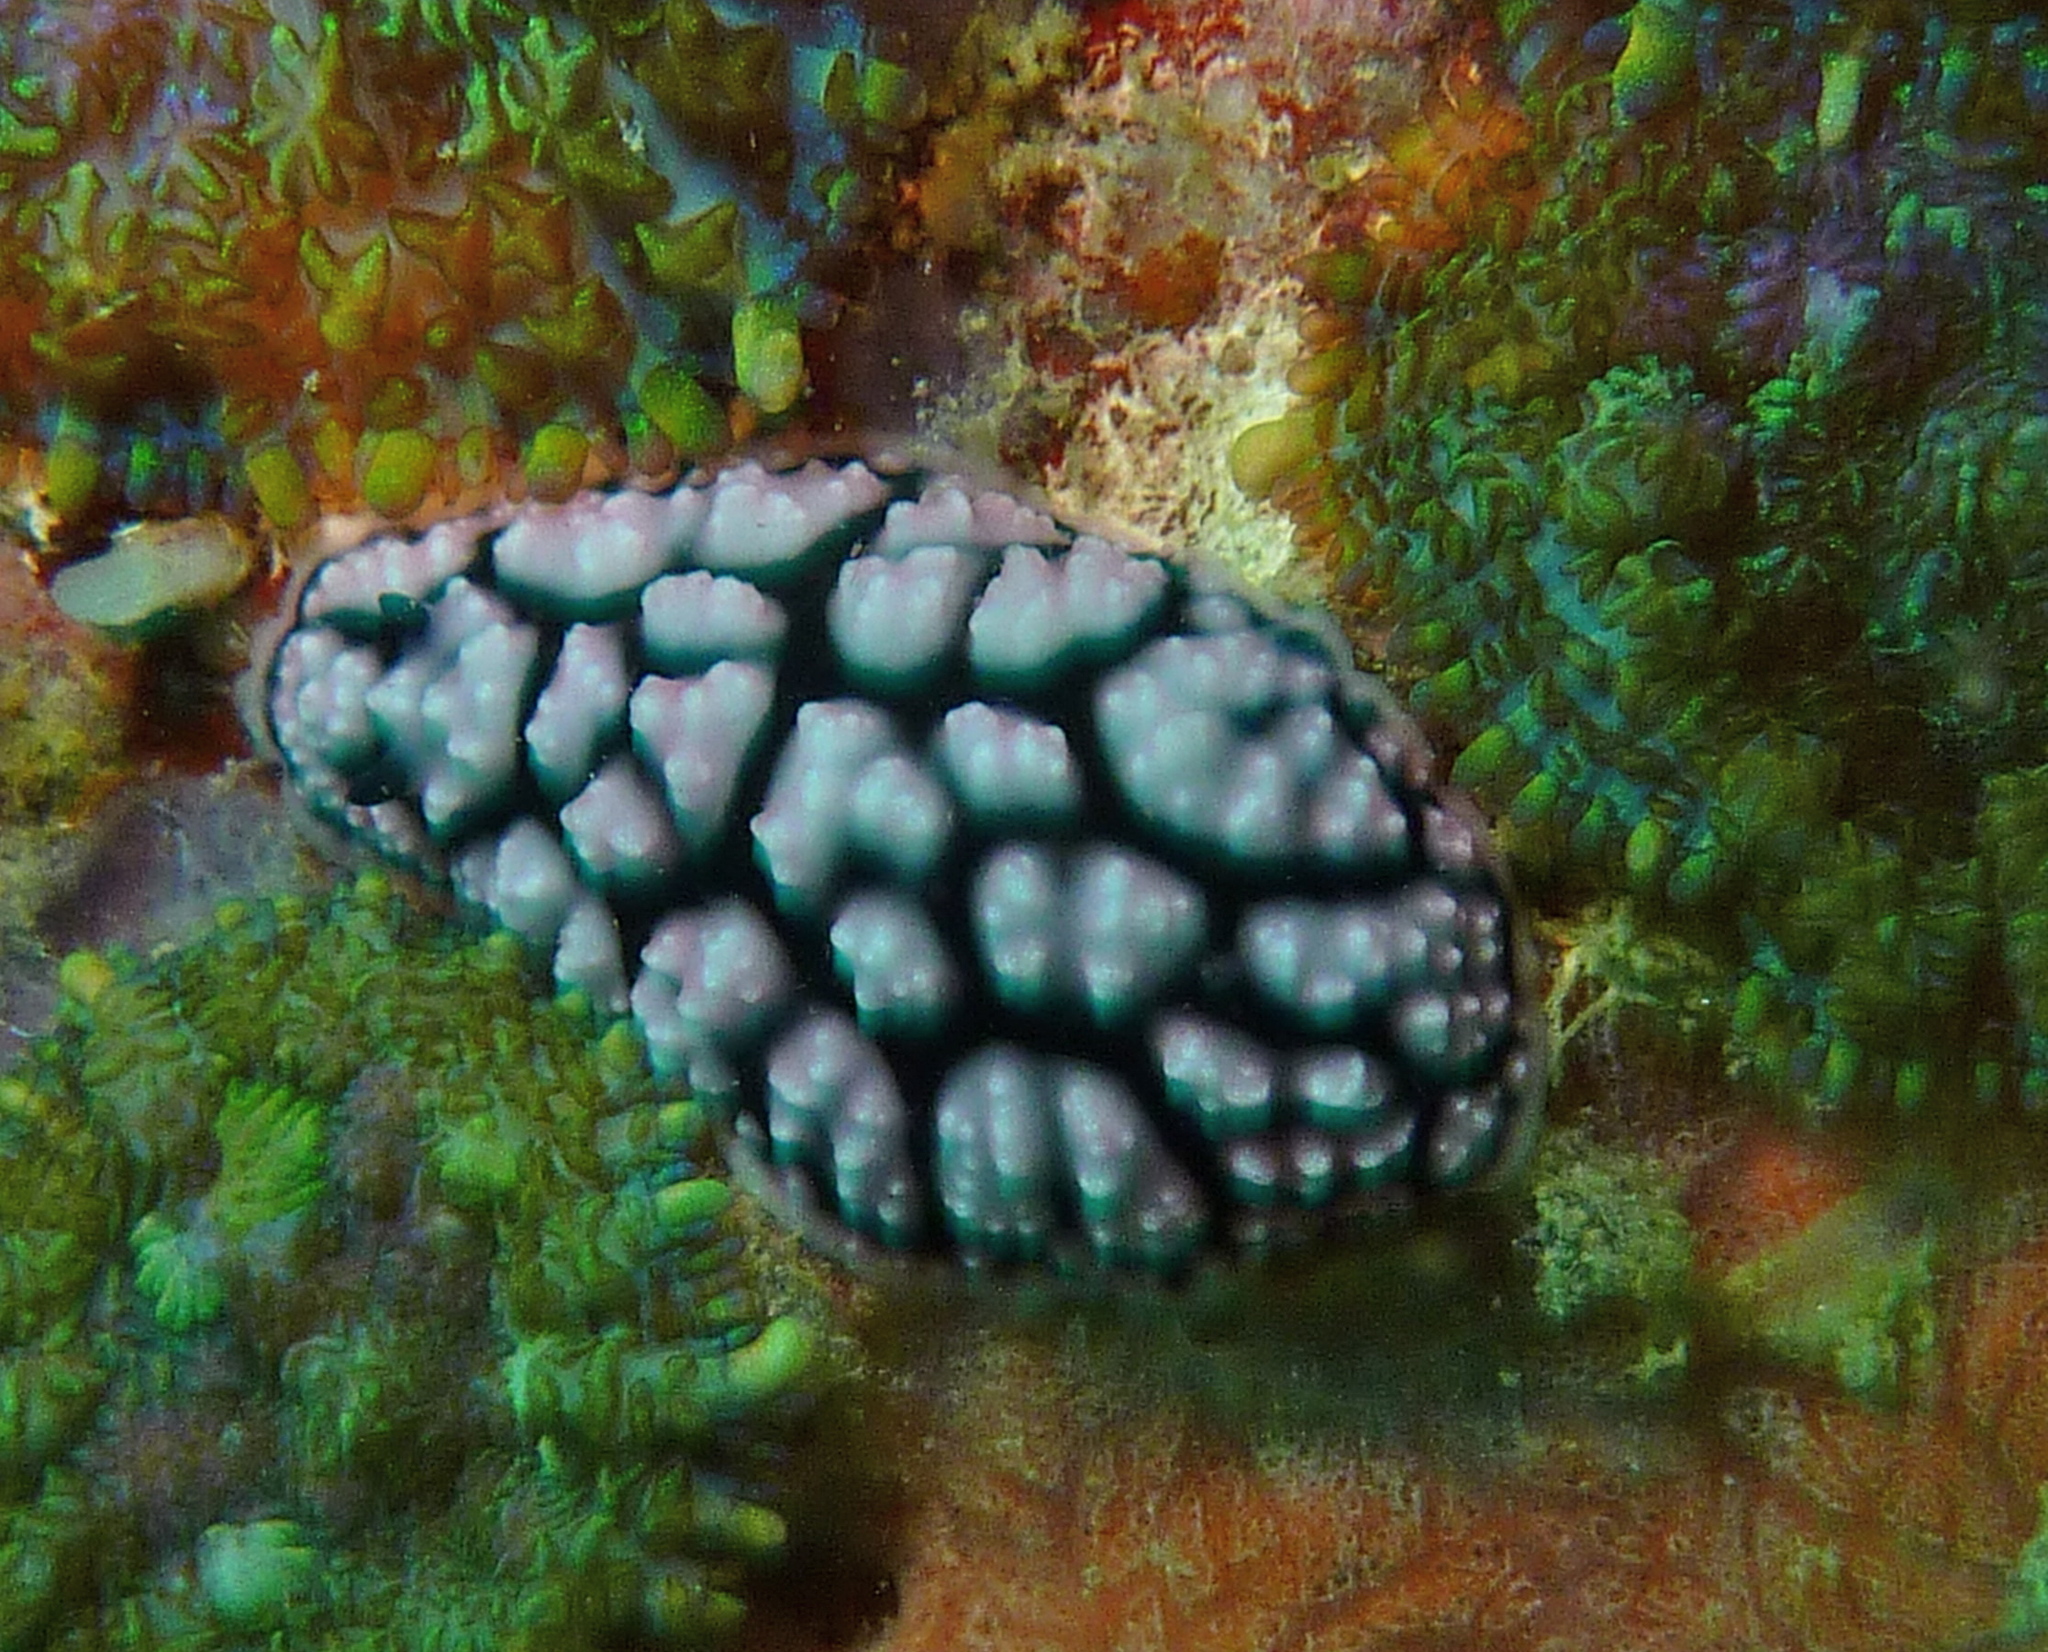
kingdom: Animalia
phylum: Mollusca
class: Gastropoda
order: Nudibranchia
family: Phyllidiidae
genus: Phyllidiella
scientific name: Phyllidiella pustulosa
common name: Pustular phyllidia
